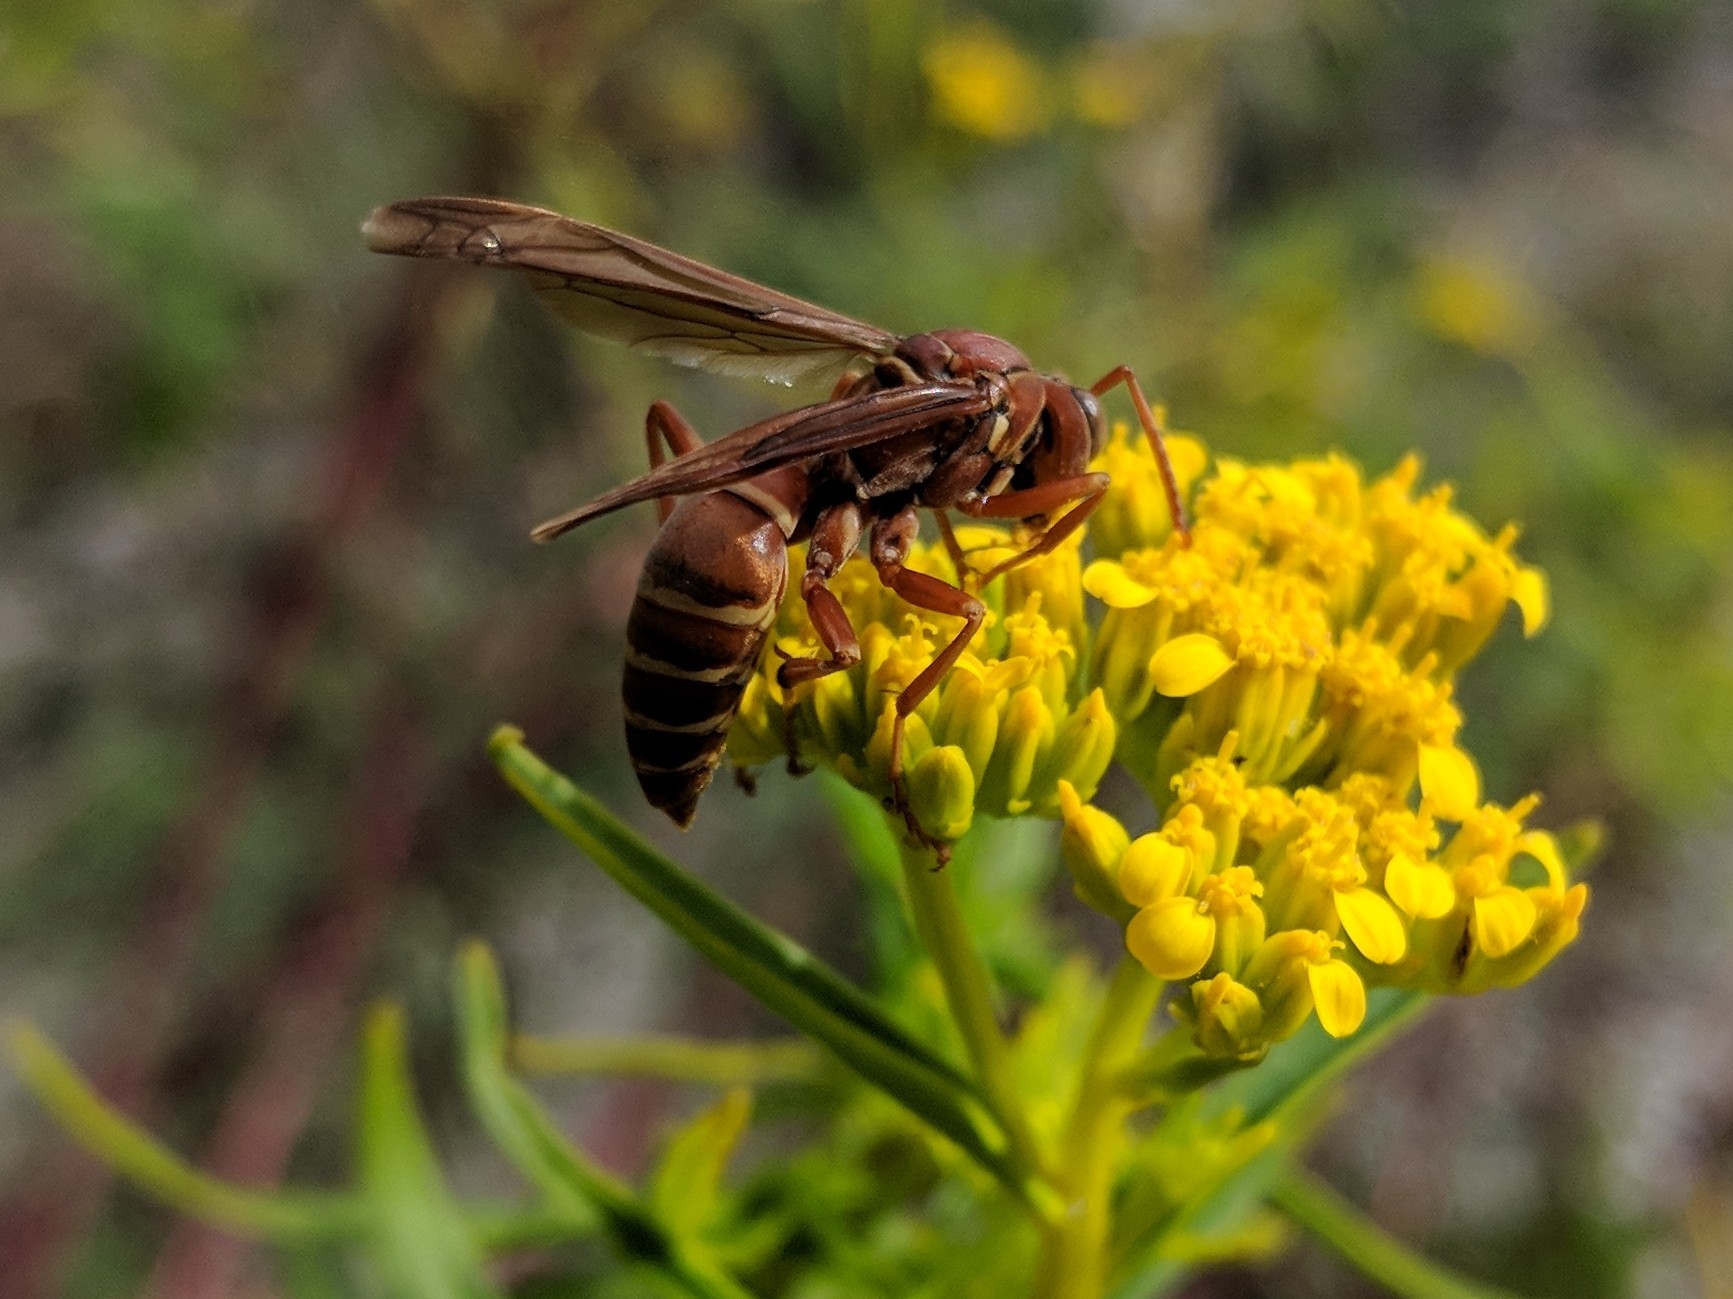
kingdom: Animalia
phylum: Arthropoda
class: Insecta
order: Hymenoptera
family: Eumenidae
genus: Polistes
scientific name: Polistes bellicosus
